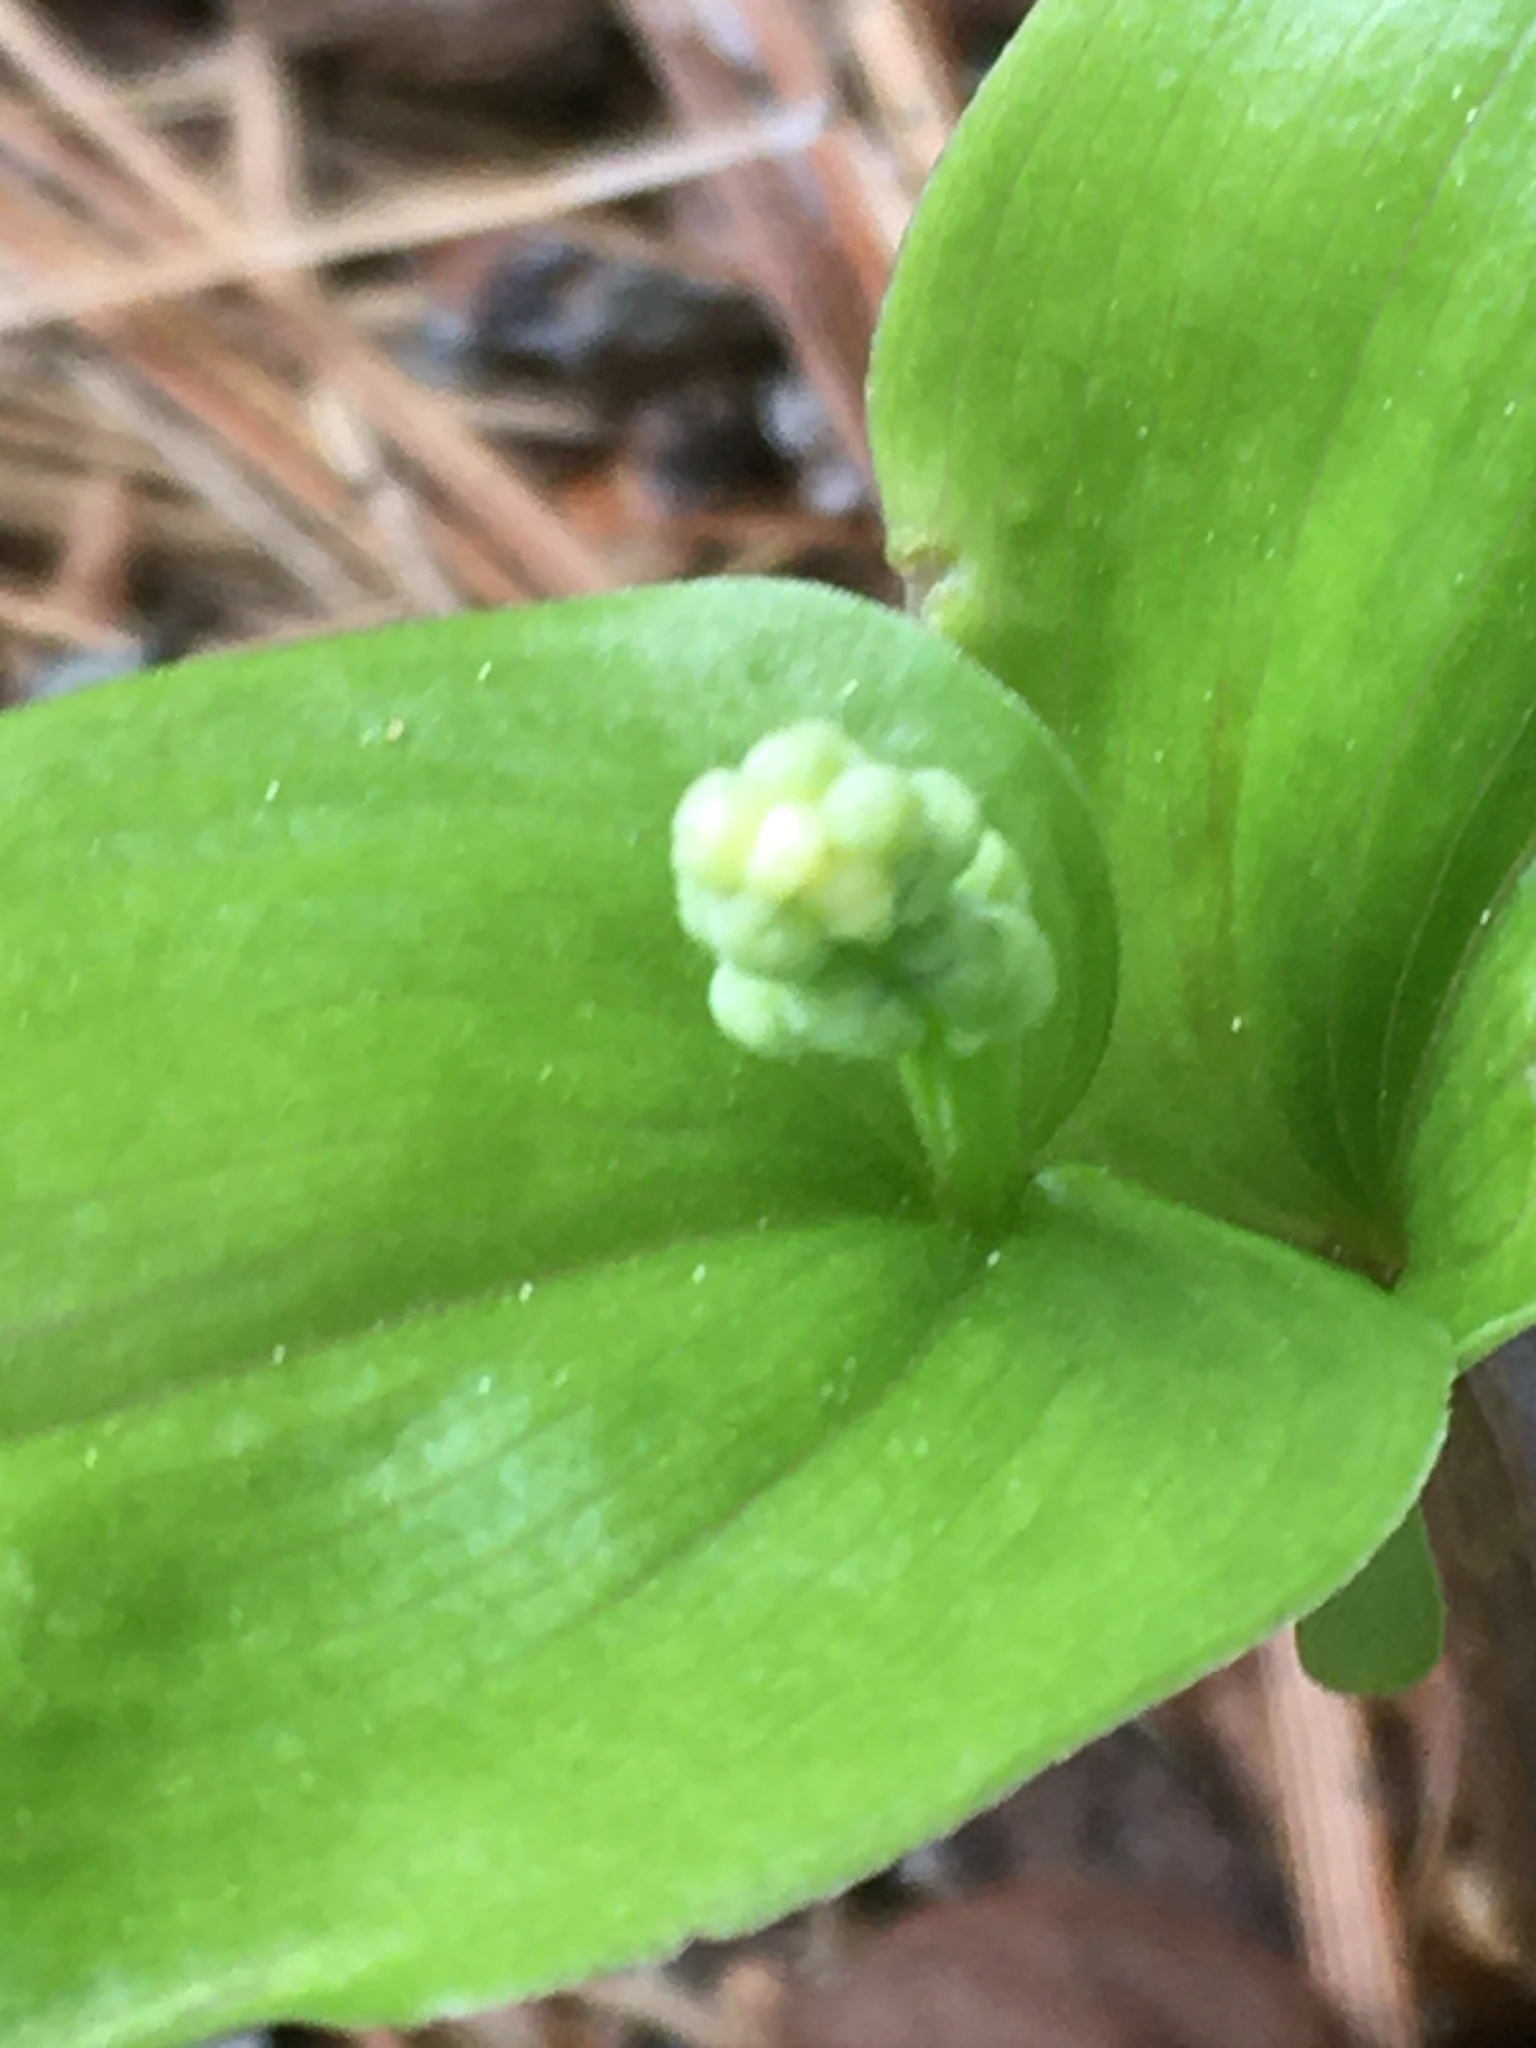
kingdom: Plantae
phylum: Tracheophyta
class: Liliopsida
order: Asparagales
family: Asparagaceae
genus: Maianthemum
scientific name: Maianthemum canadense
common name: False lily-of-the-valley
